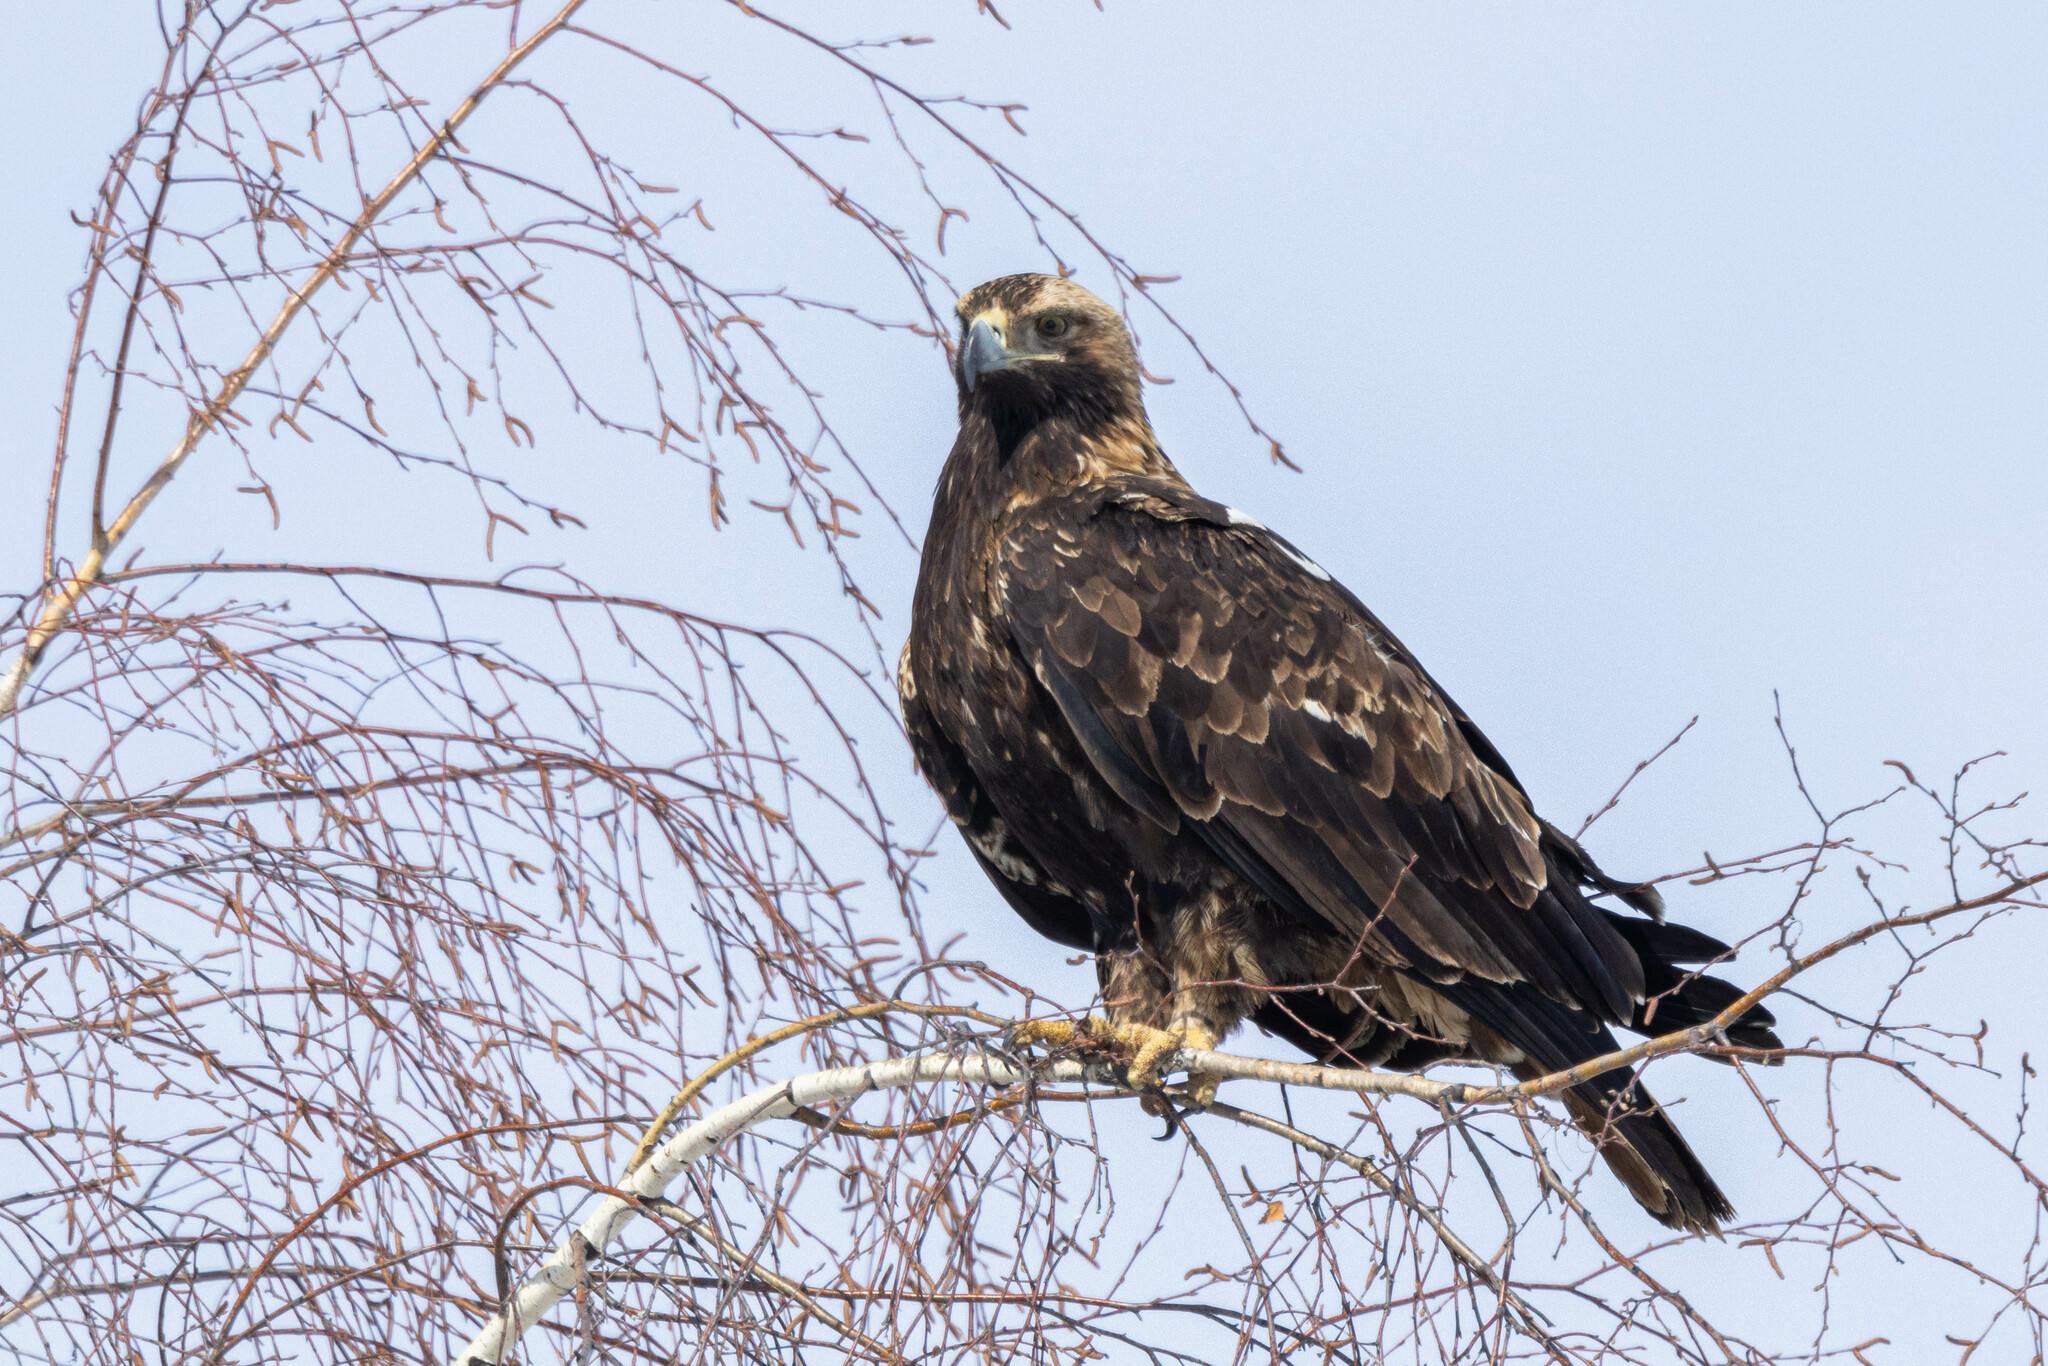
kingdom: Animalia
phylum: Chordata
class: Aves
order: Accipitriformes
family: Accipitridae
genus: Aquila
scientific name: Aquila heliaca
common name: Eastern imperial eagle
